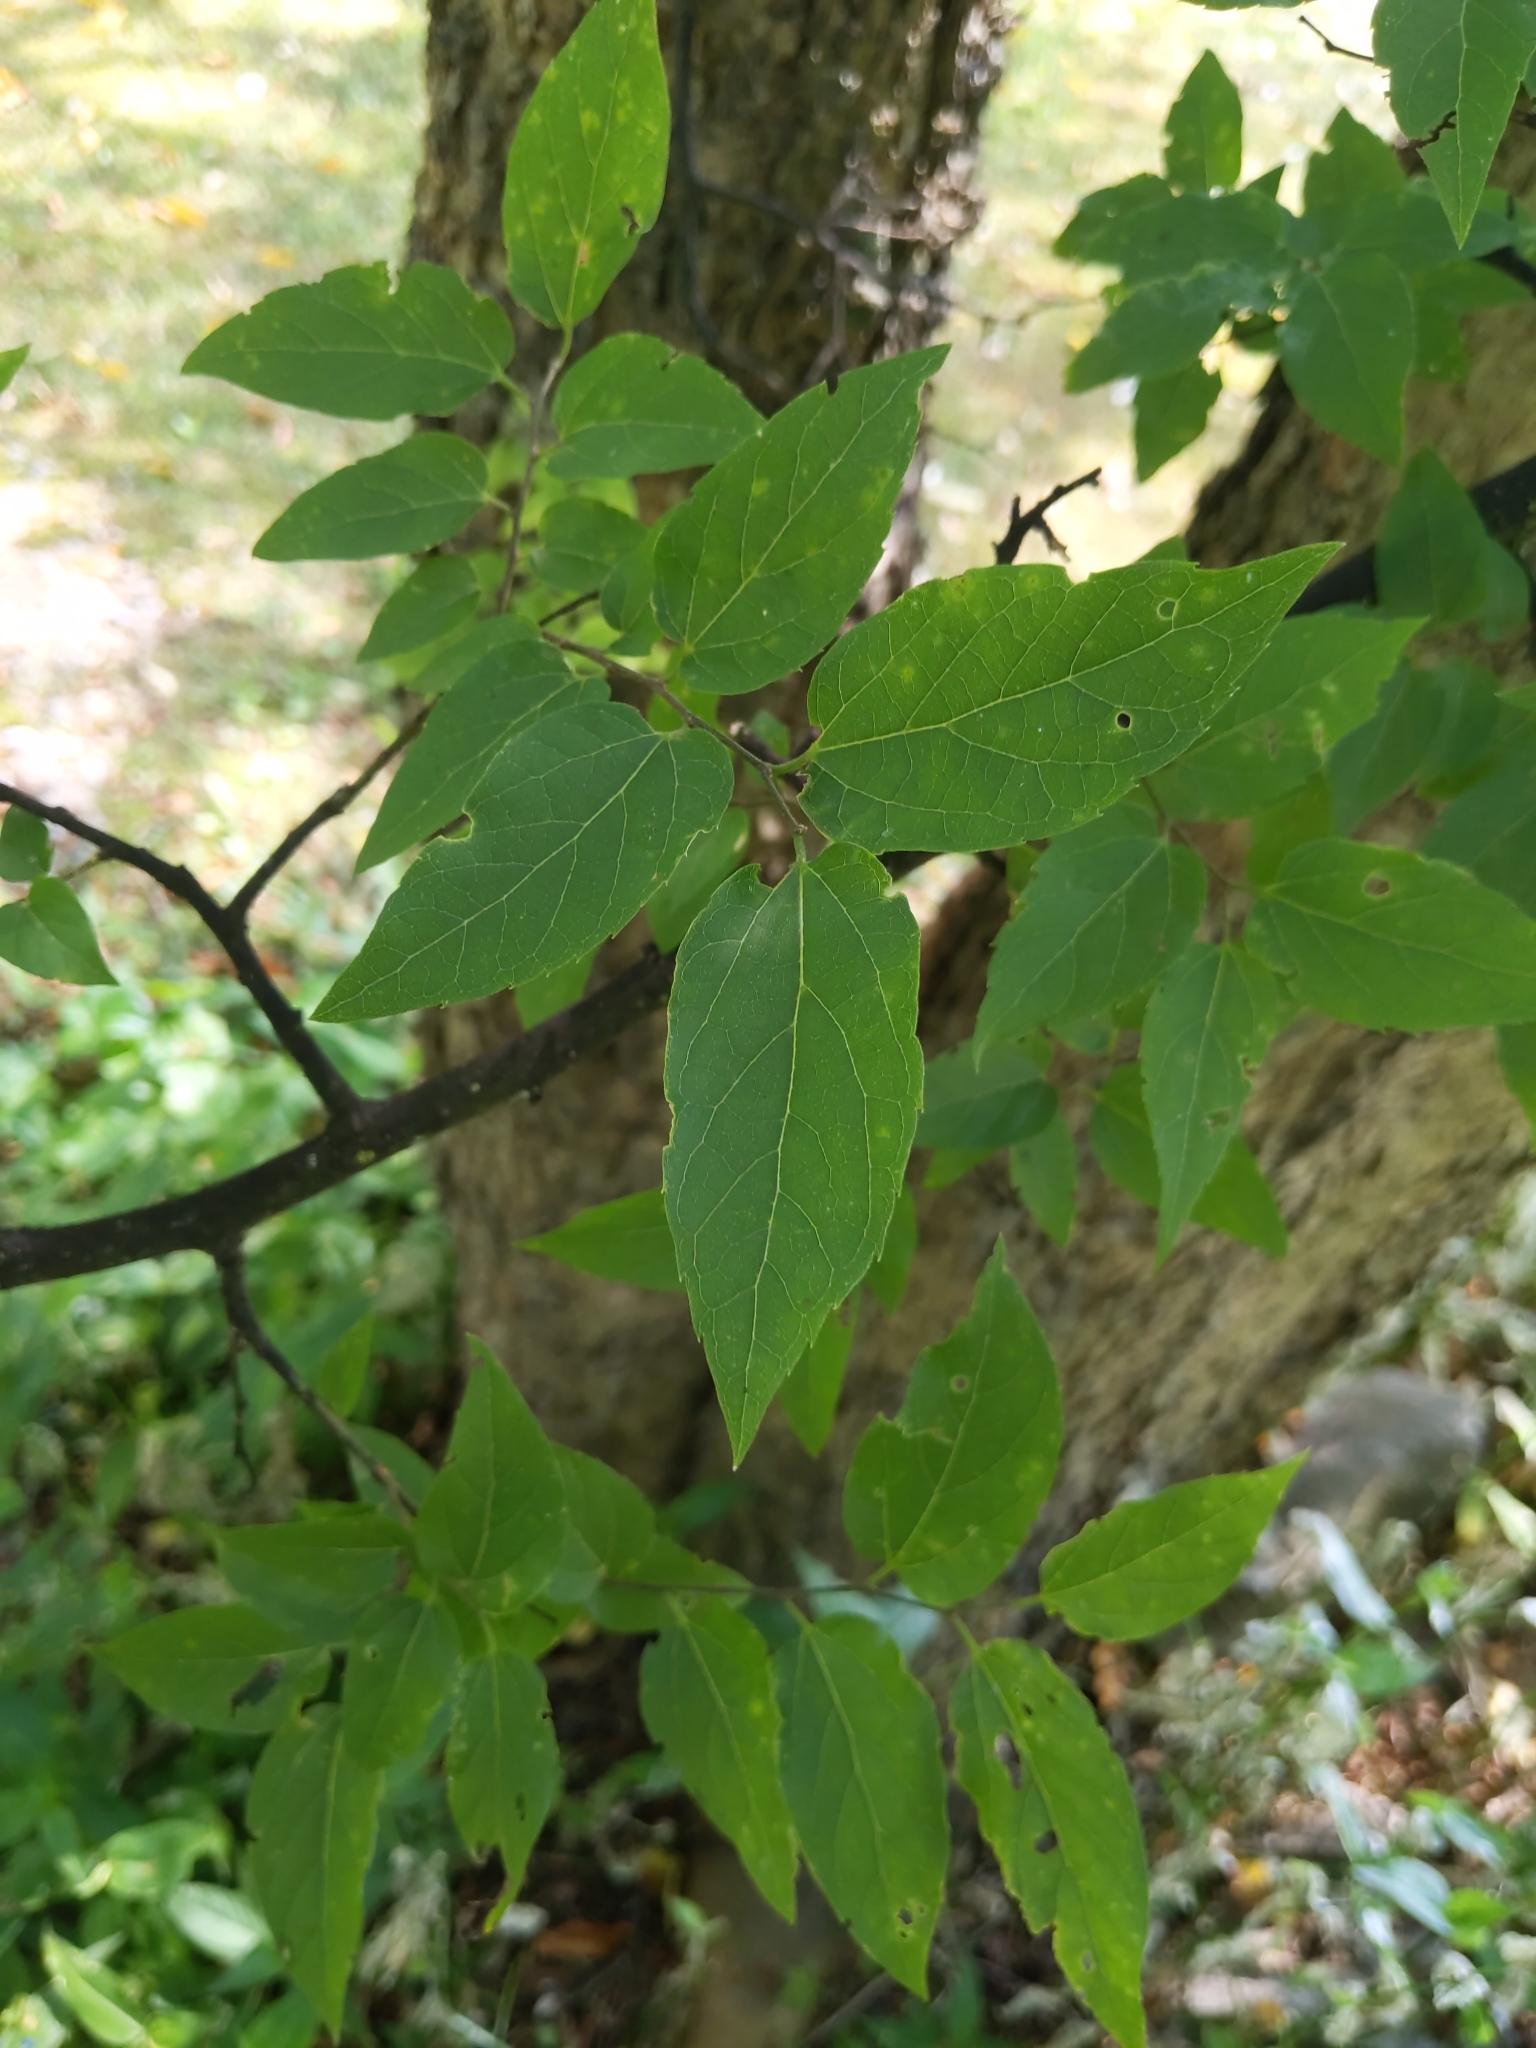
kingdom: Plantae
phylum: Tracheophyta
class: Magnoliopsida
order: Rosales
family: Cannabaceae
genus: Celtis
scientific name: Celtis laevigata
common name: Sugarberry
